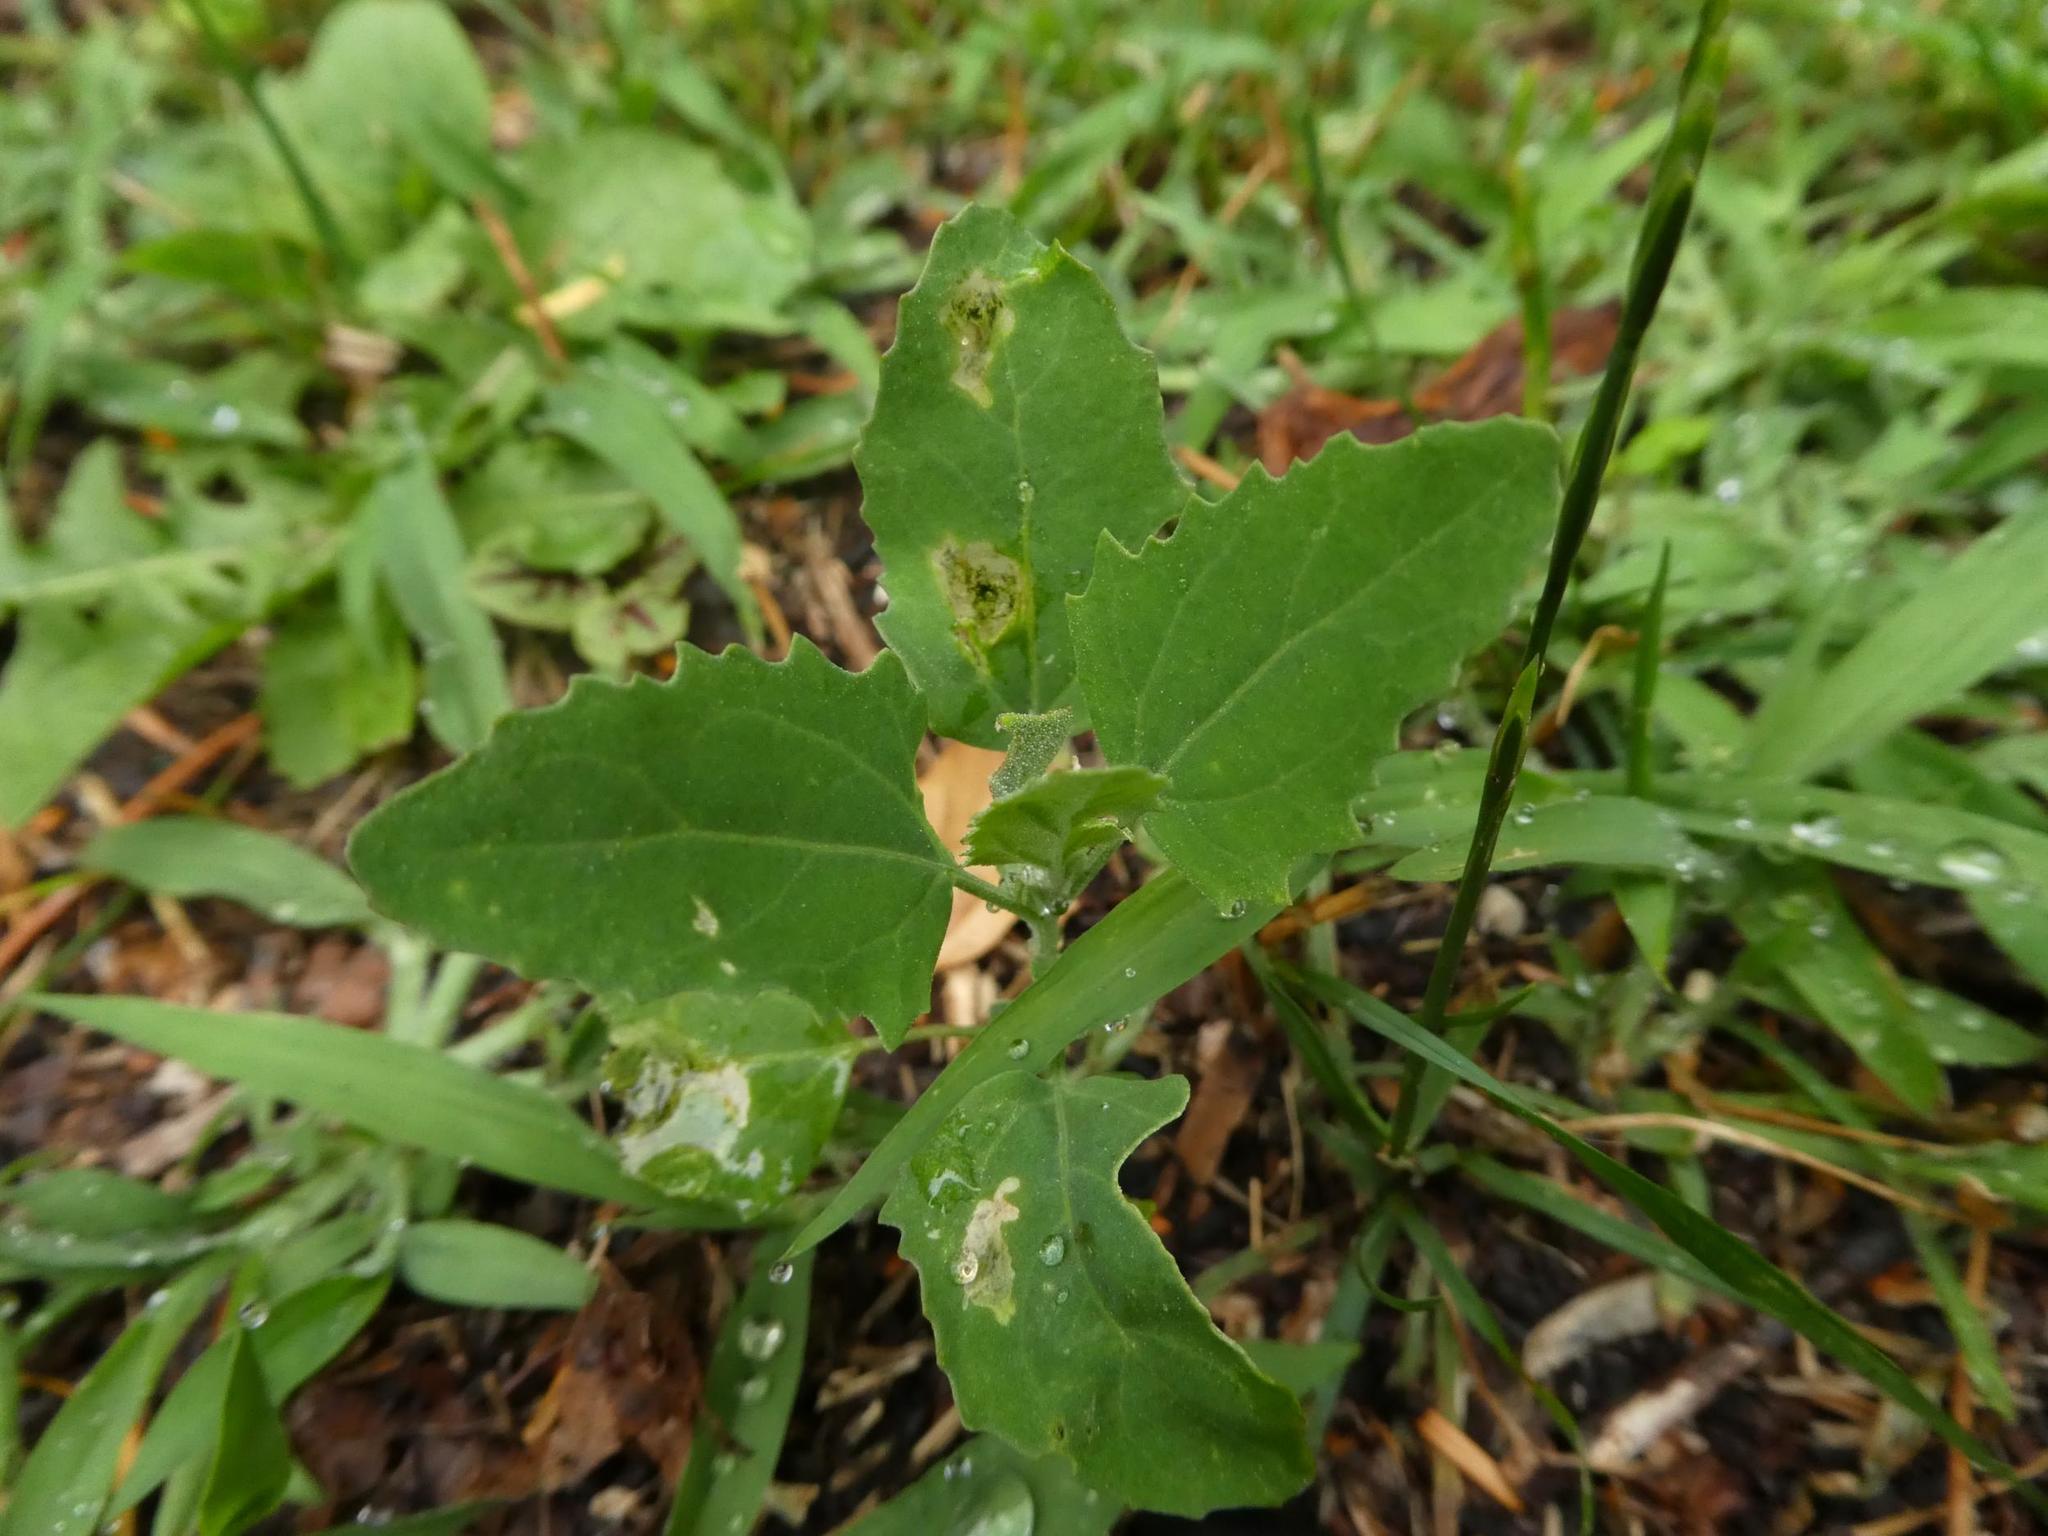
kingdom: Plantae
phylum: Tracheophyta
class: Magnoliopsida
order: Caryophyllales
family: Amaranthaceae
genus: Chenopodium
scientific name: Chenopodium album
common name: Fat-hen
